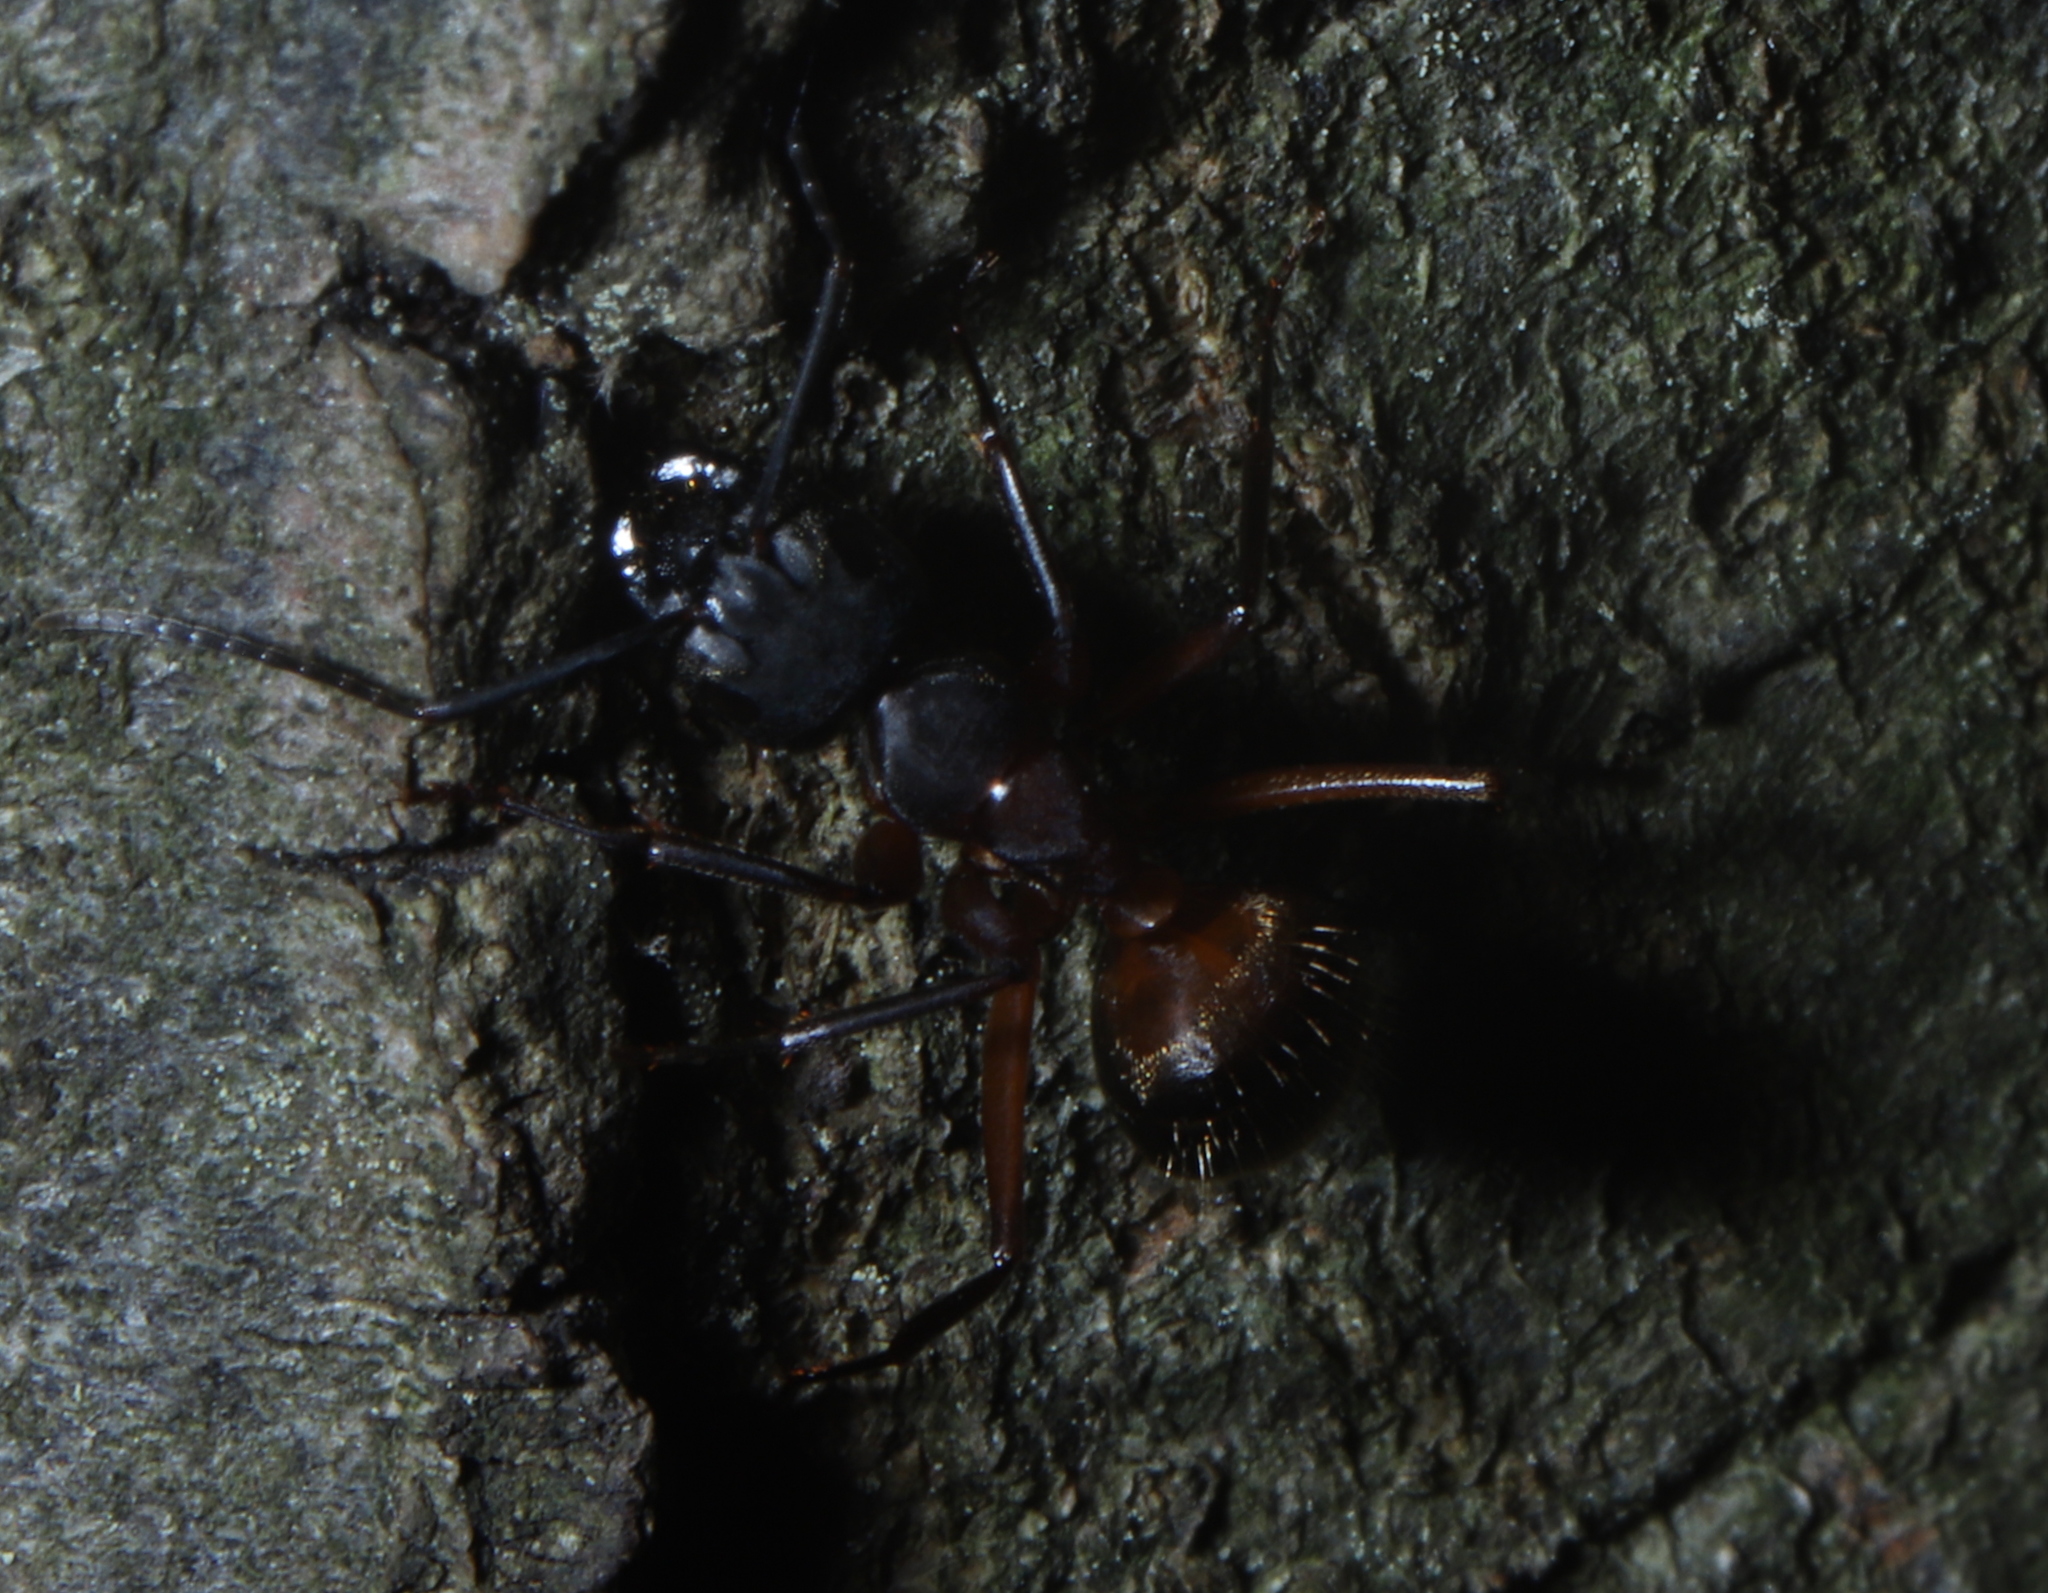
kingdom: Animalia
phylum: Arthropoda
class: Insecta
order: Hymenoptera
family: Formicidae
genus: Camponotus
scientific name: Camponotus chromaiodes
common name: Red carpenter ant
